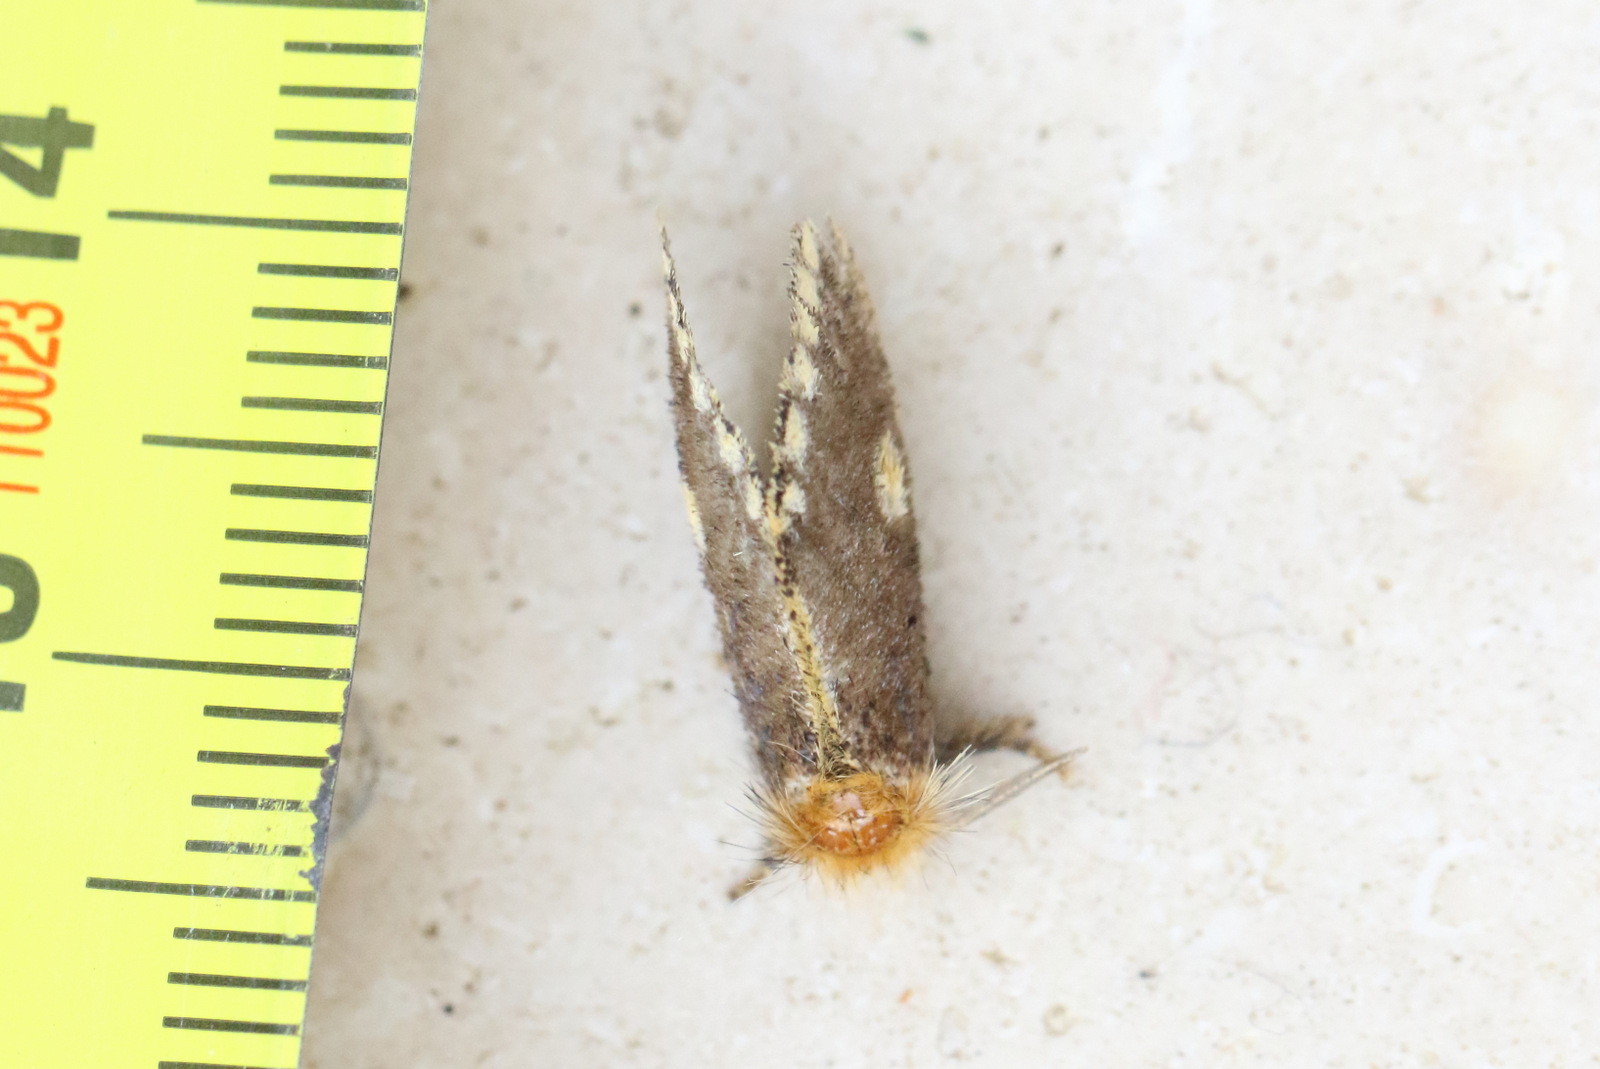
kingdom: Animalia
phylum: Arthropoda
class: Insecta
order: Lepidoptera
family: Notodontidae
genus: Epicoma
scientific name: Epicoma protrahens
